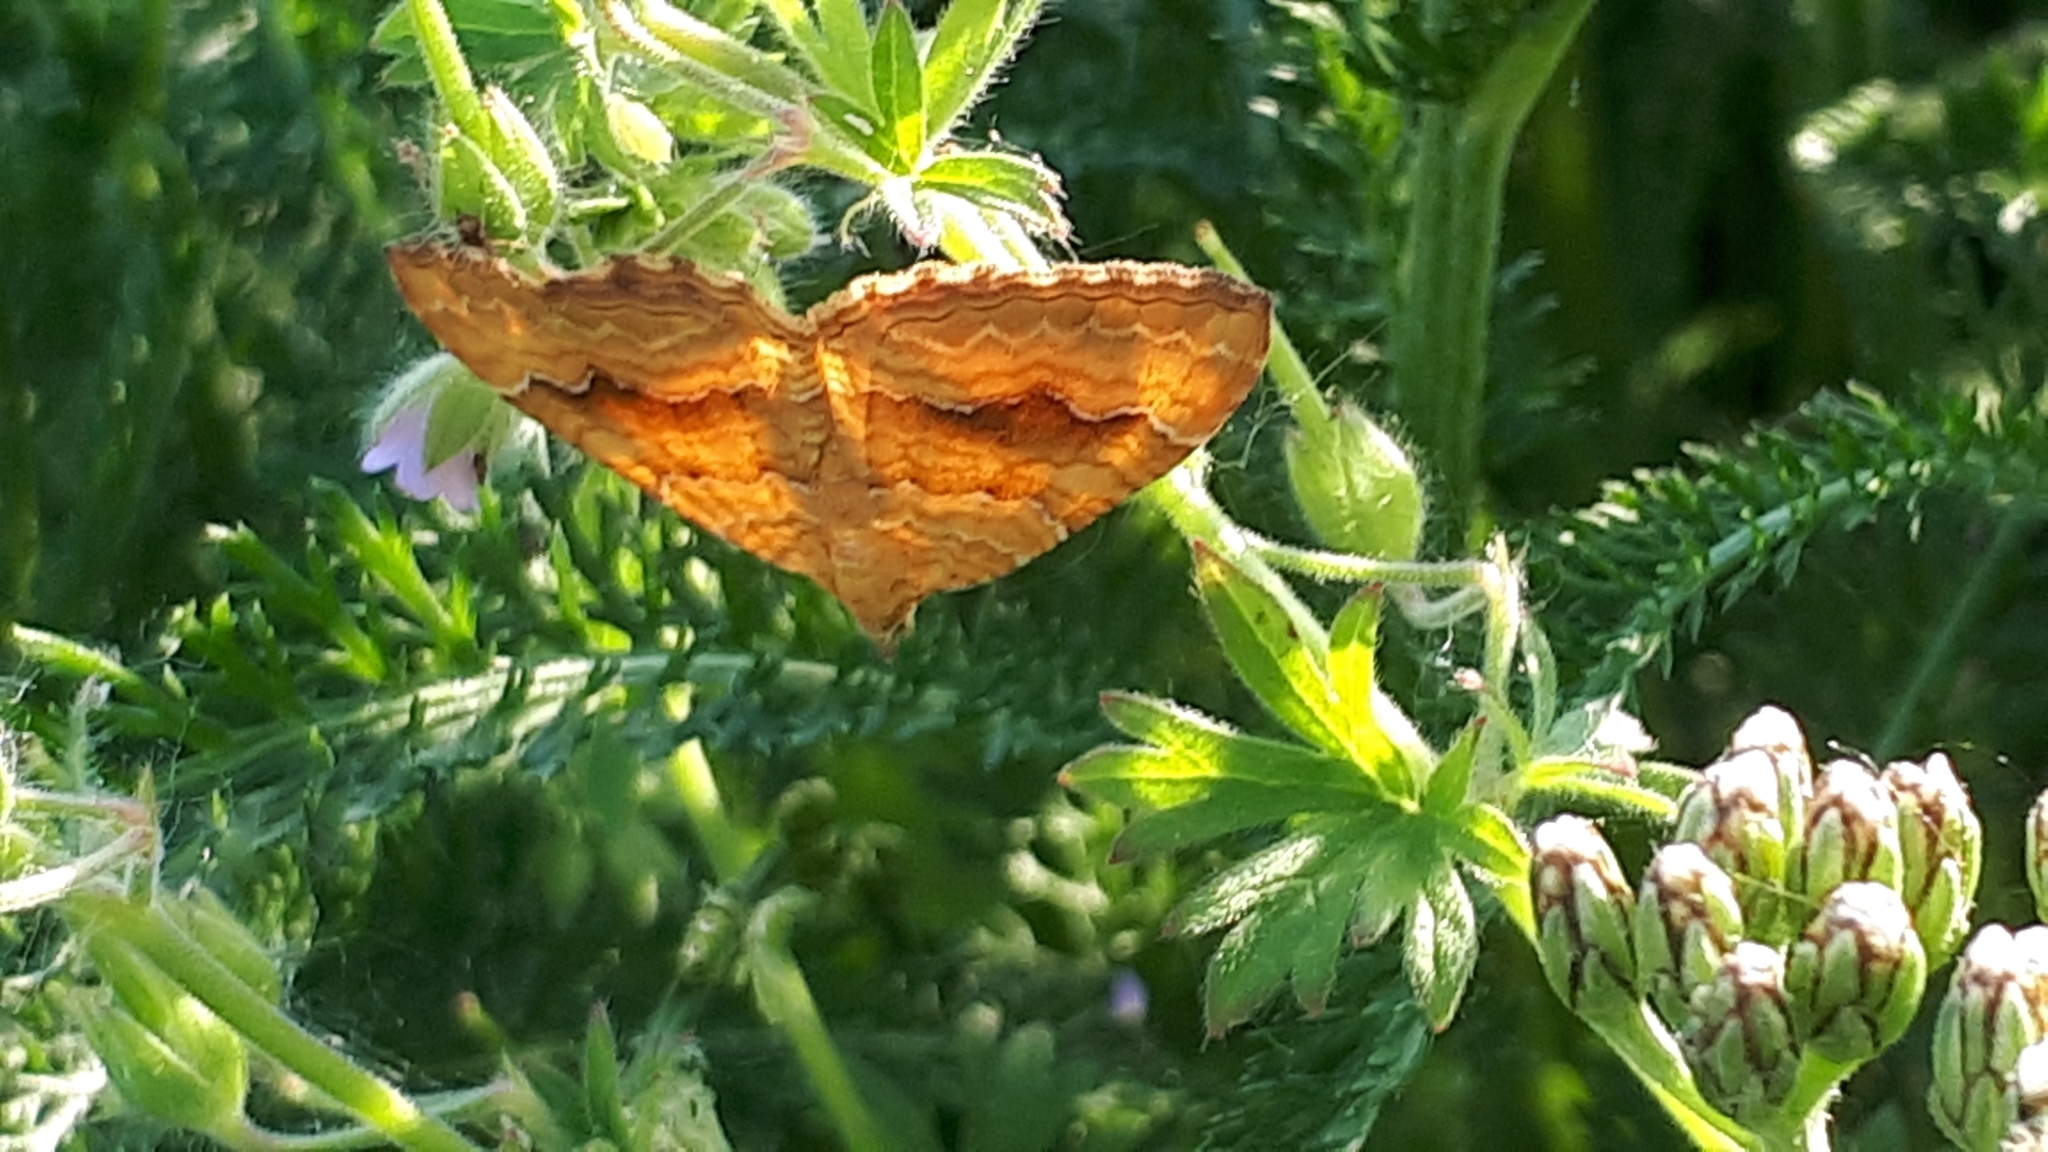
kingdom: Animalia
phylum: Arthropoda
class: Insecta
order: Lepidoptera
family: Geometridae
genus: Camptogramma
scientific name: Camptogramma bilineata
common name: Yellow shell
